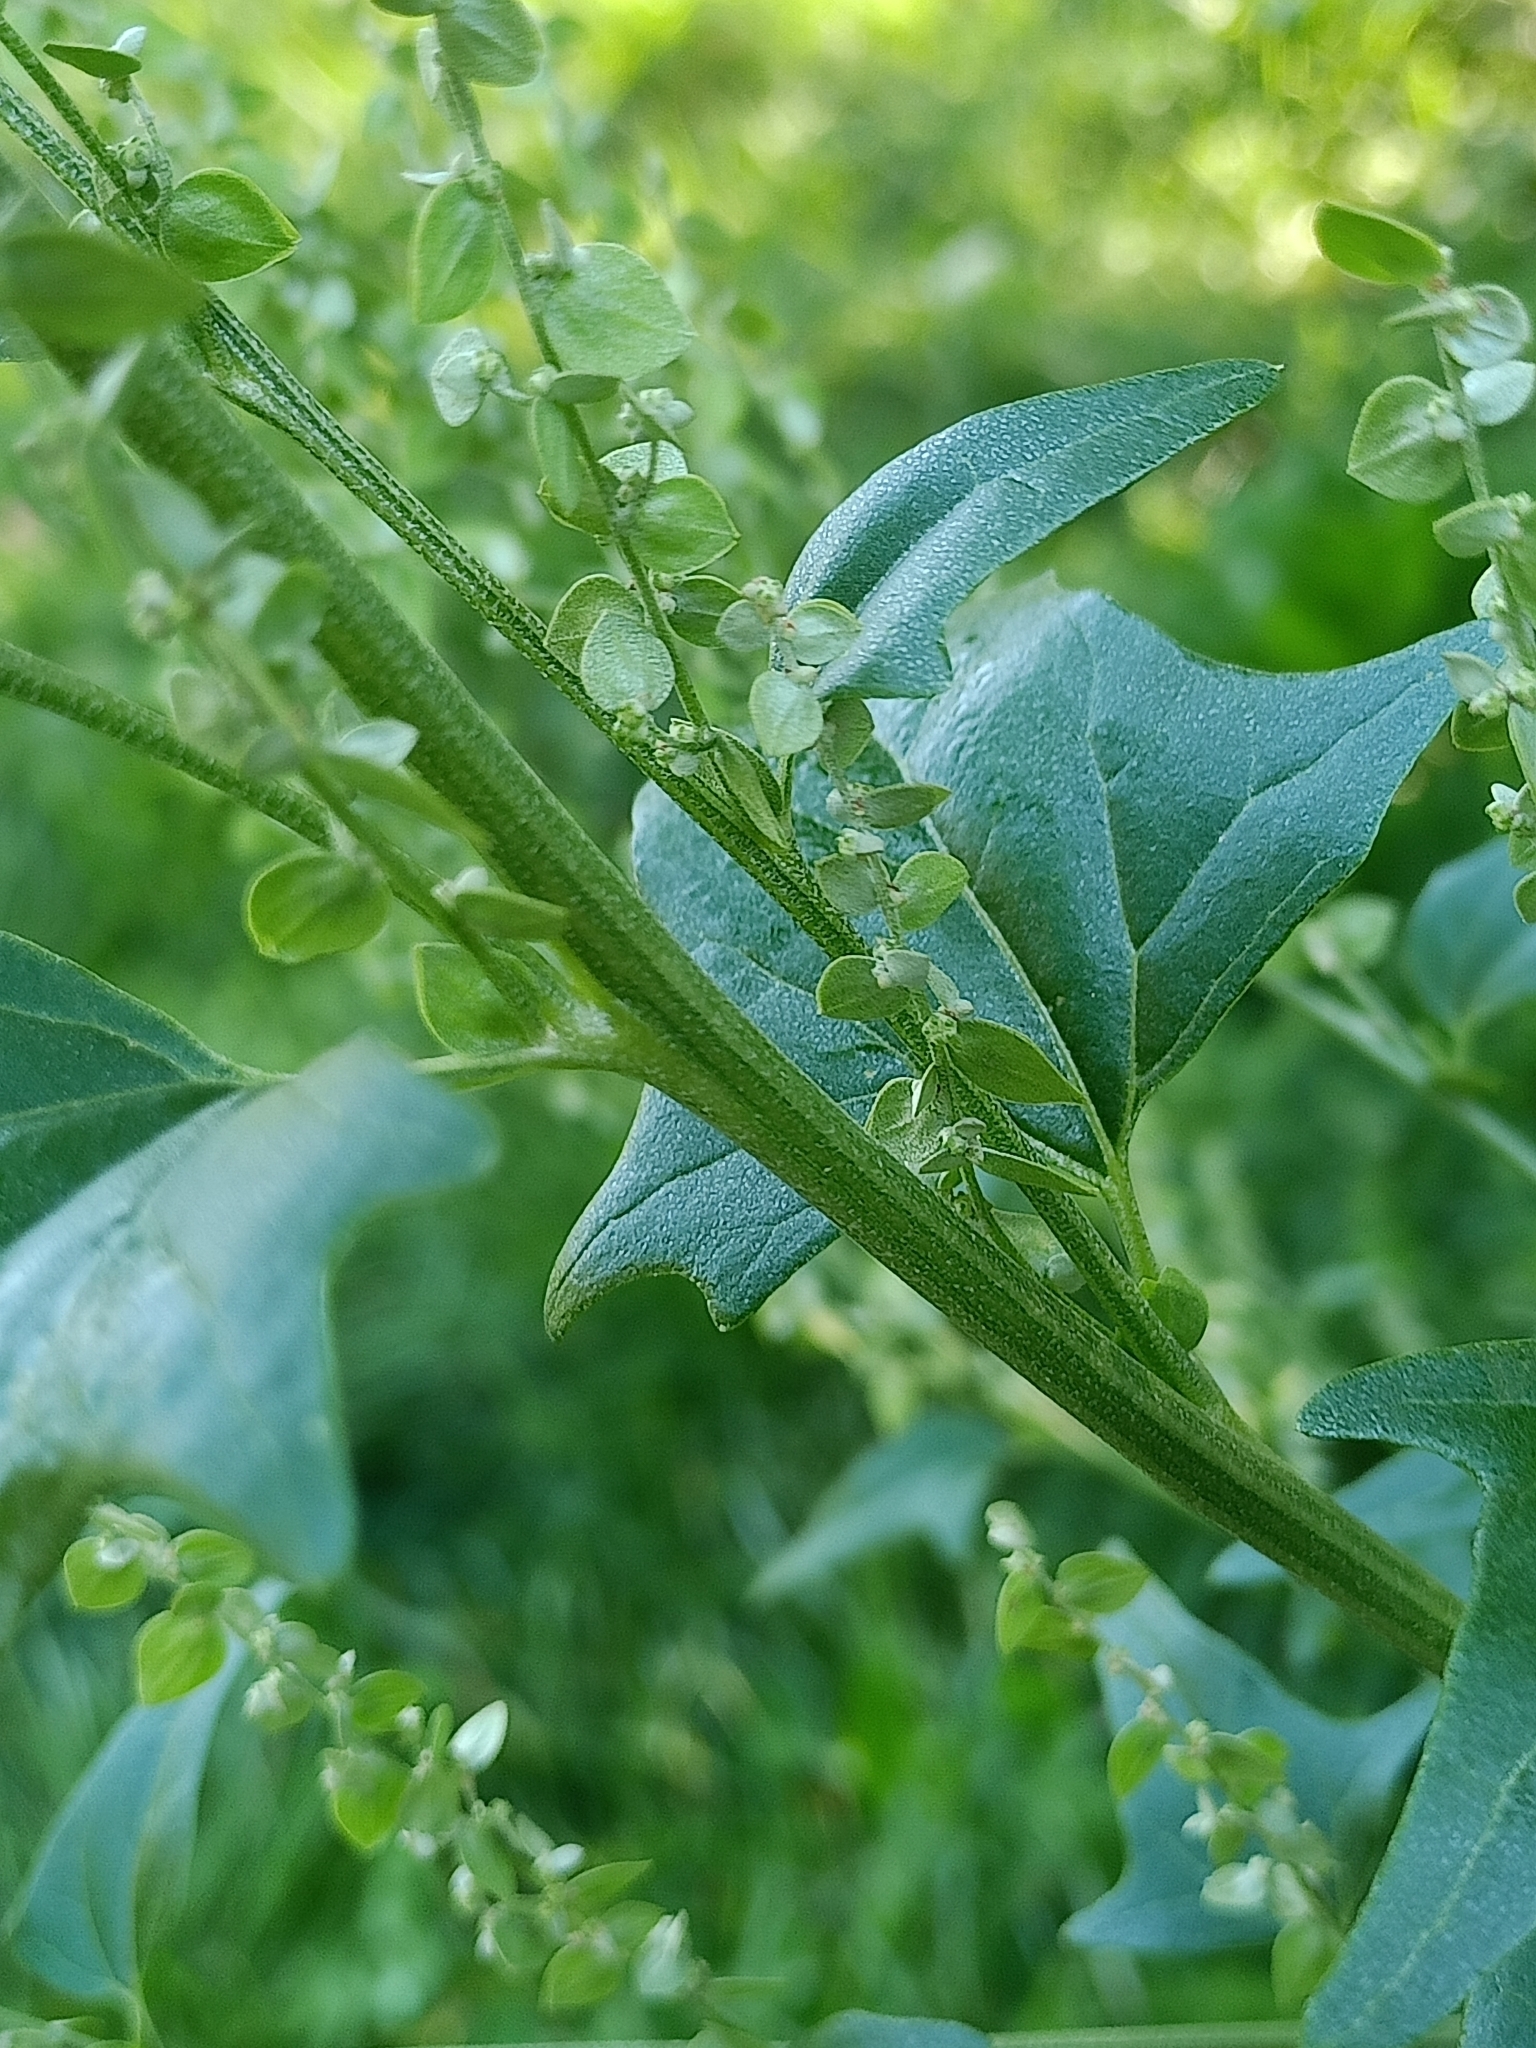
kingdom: Plantae
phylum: Tracheophyta
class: Magnoliopsida
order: Caryophyllales
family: Amaranthaceae
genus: Atriplex
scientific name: Atriplex sagittata
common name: Purple orache
